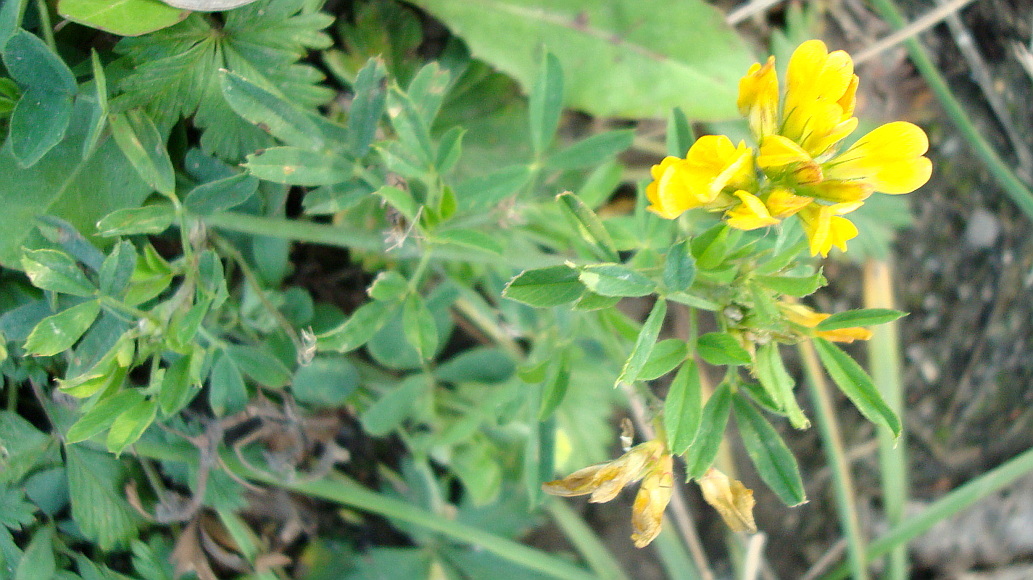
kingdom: Plantae
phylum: Tracheophyta
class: Magnoliopsida
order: Fabales
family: Fabaceae
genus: Medicago
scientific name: Medicago falcata
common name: Sickle medick
